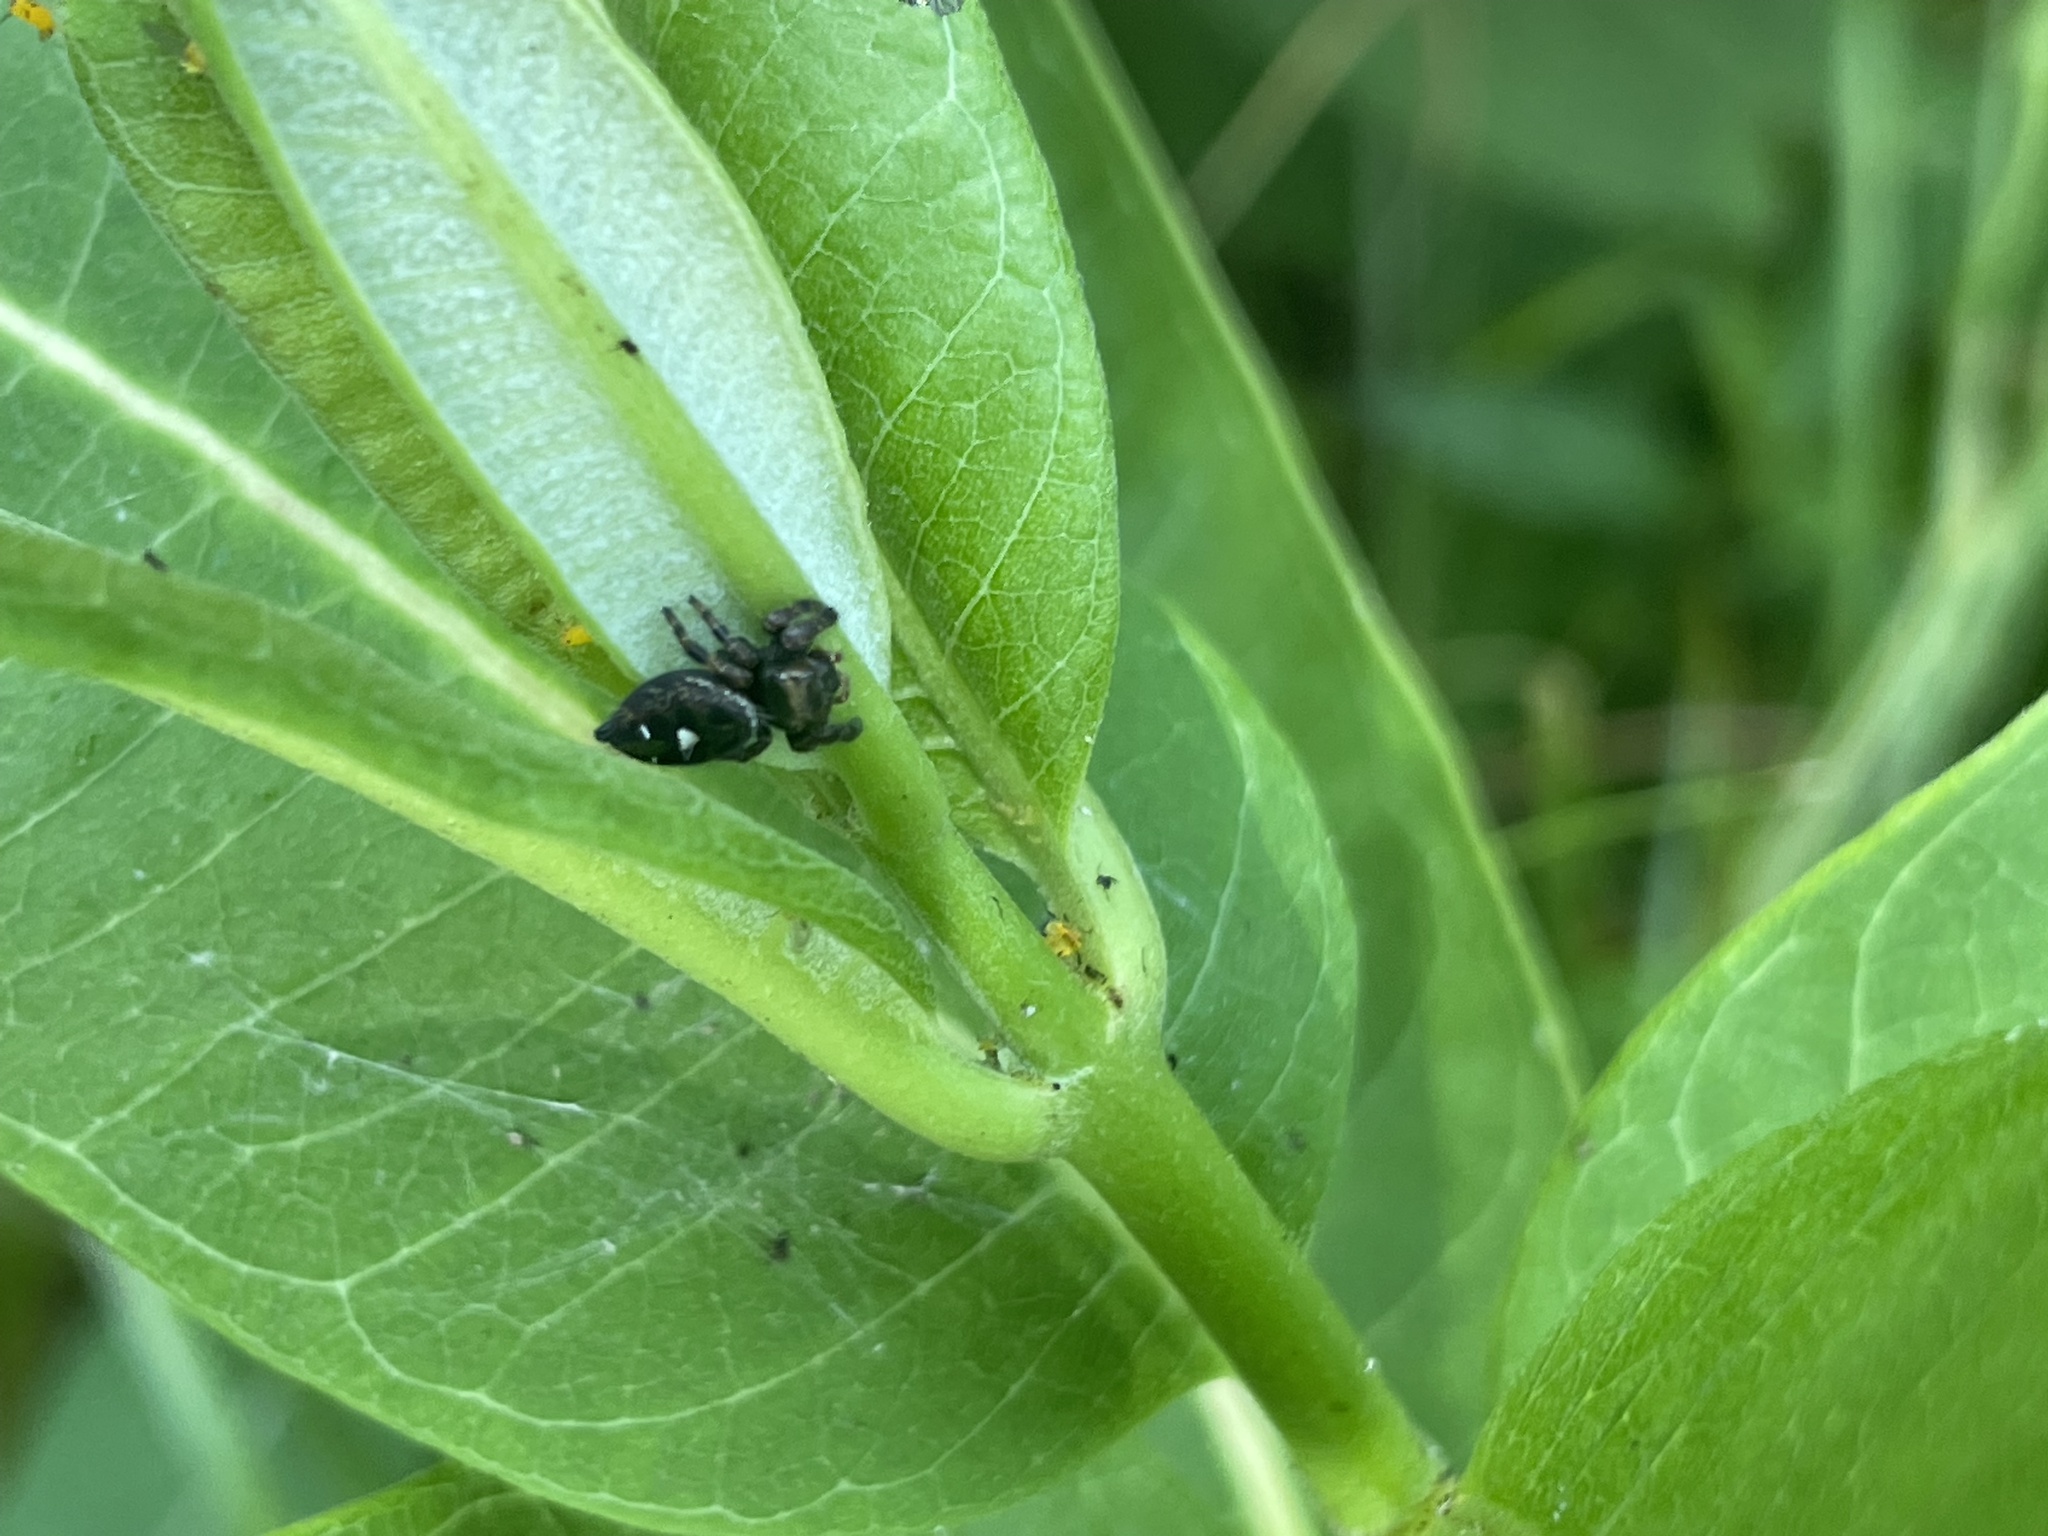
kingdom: Animalia
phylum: Arthropoda
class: Arachnida
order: Araneae
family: Salticidae
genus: Phidippus
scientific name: Phidippus audax
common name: Bold jumper
